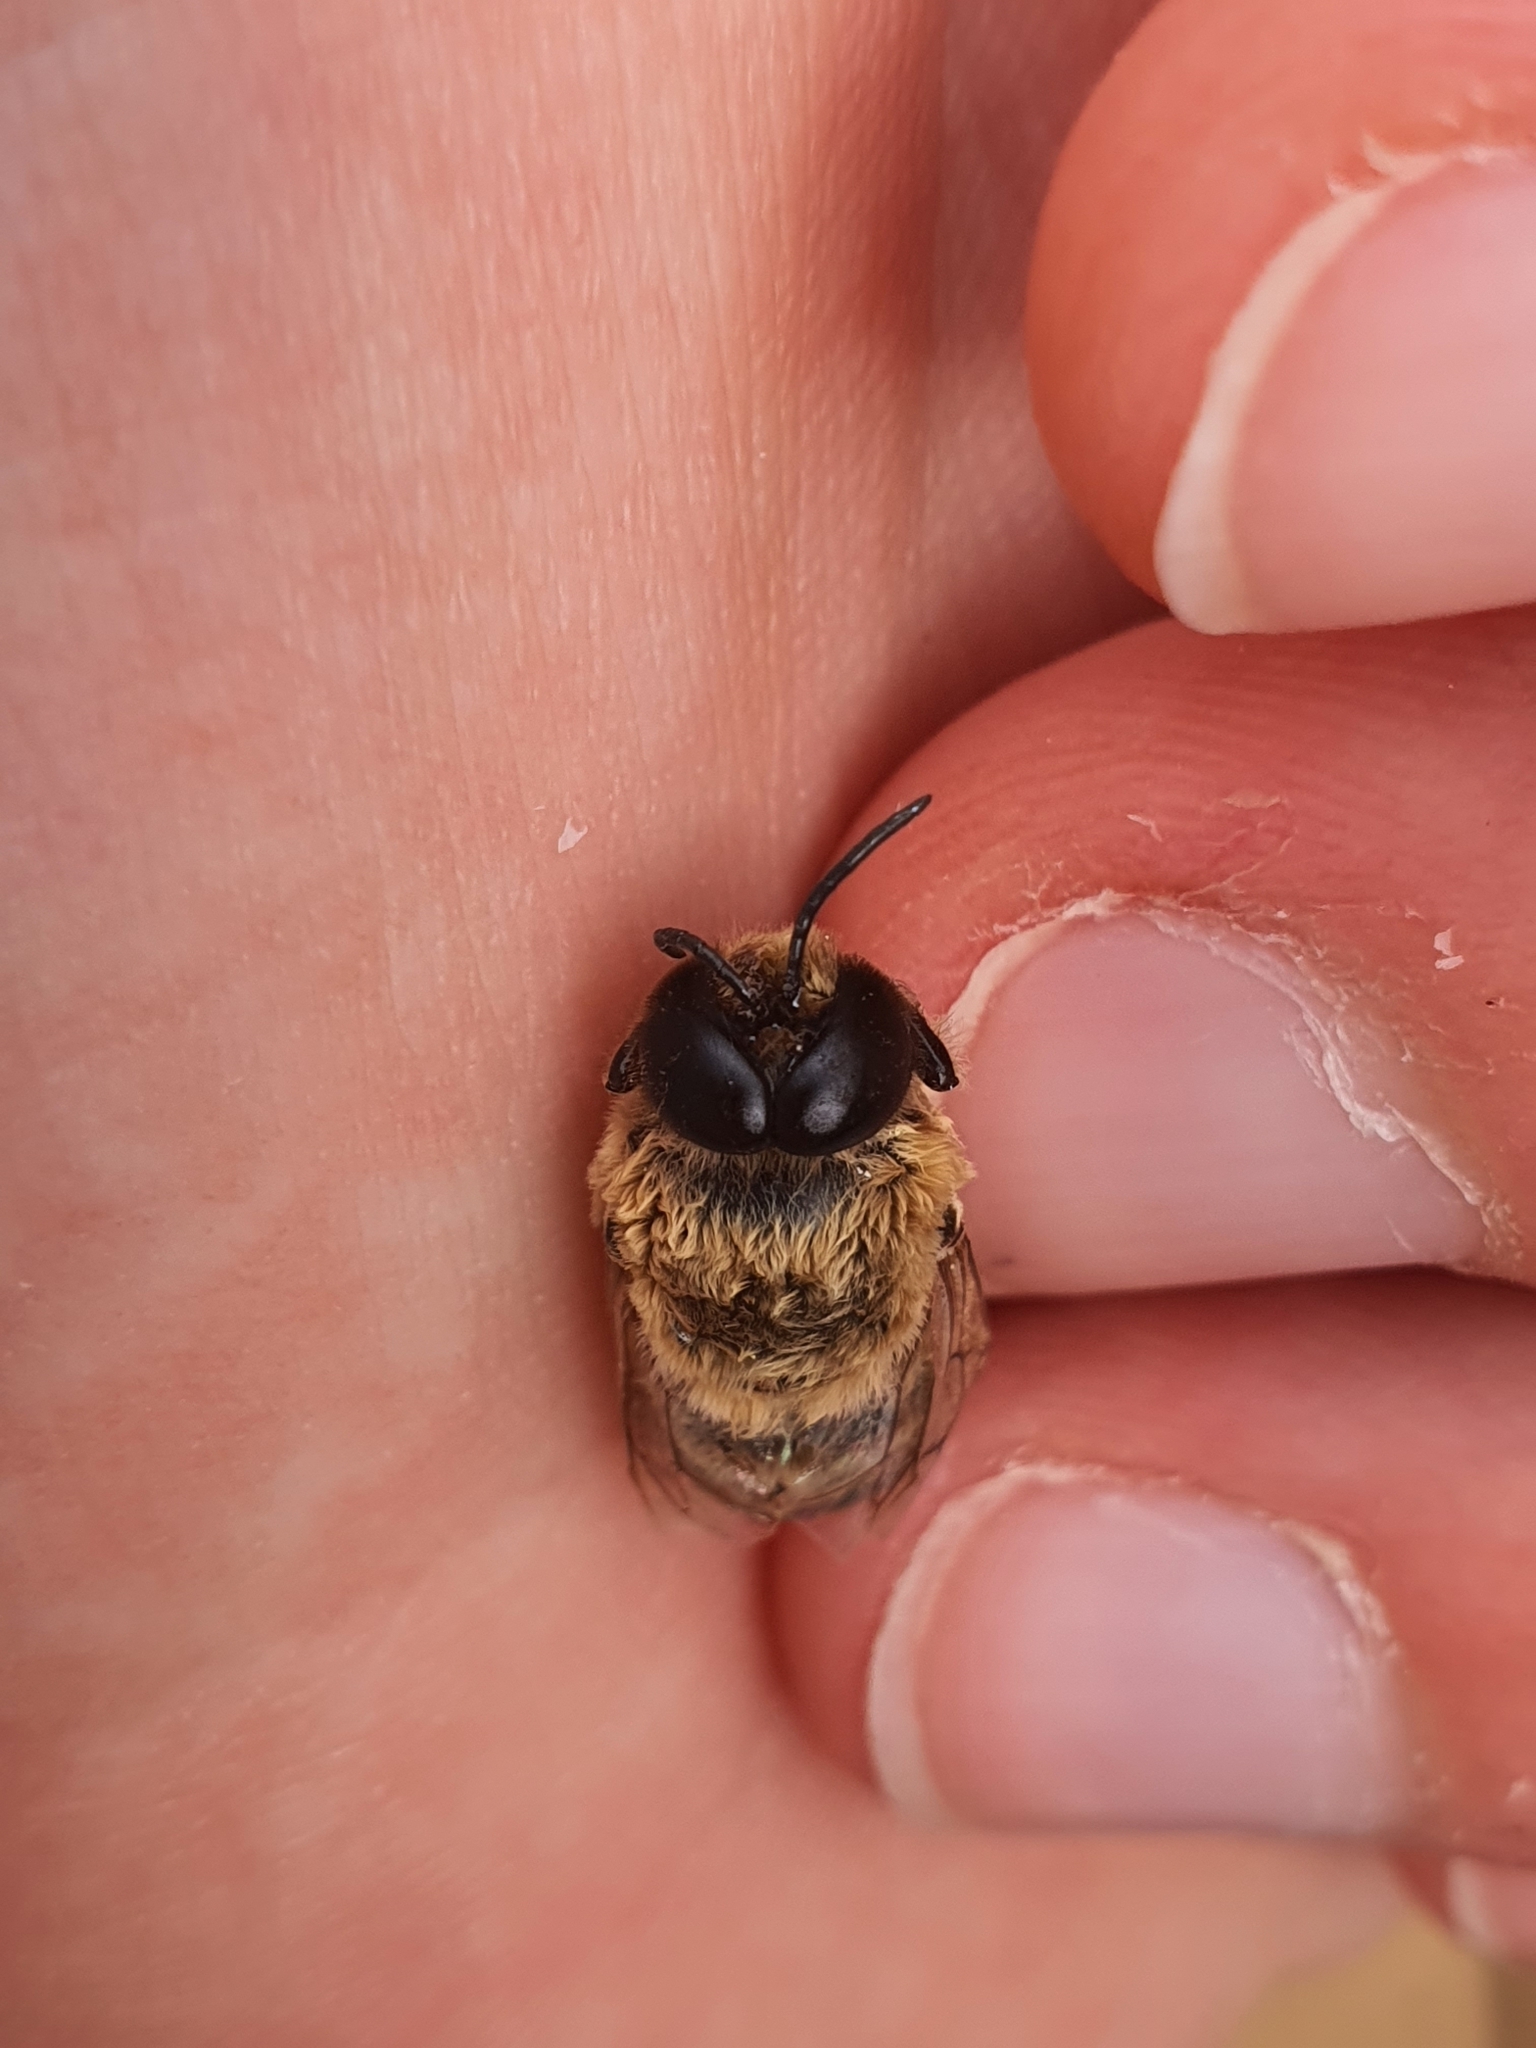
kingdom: Animalia
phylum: Arthropoda
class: Insecta
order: Hymenoptera
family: Apidae
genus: Apis
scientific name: Apis mellifera
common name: Honey bee
